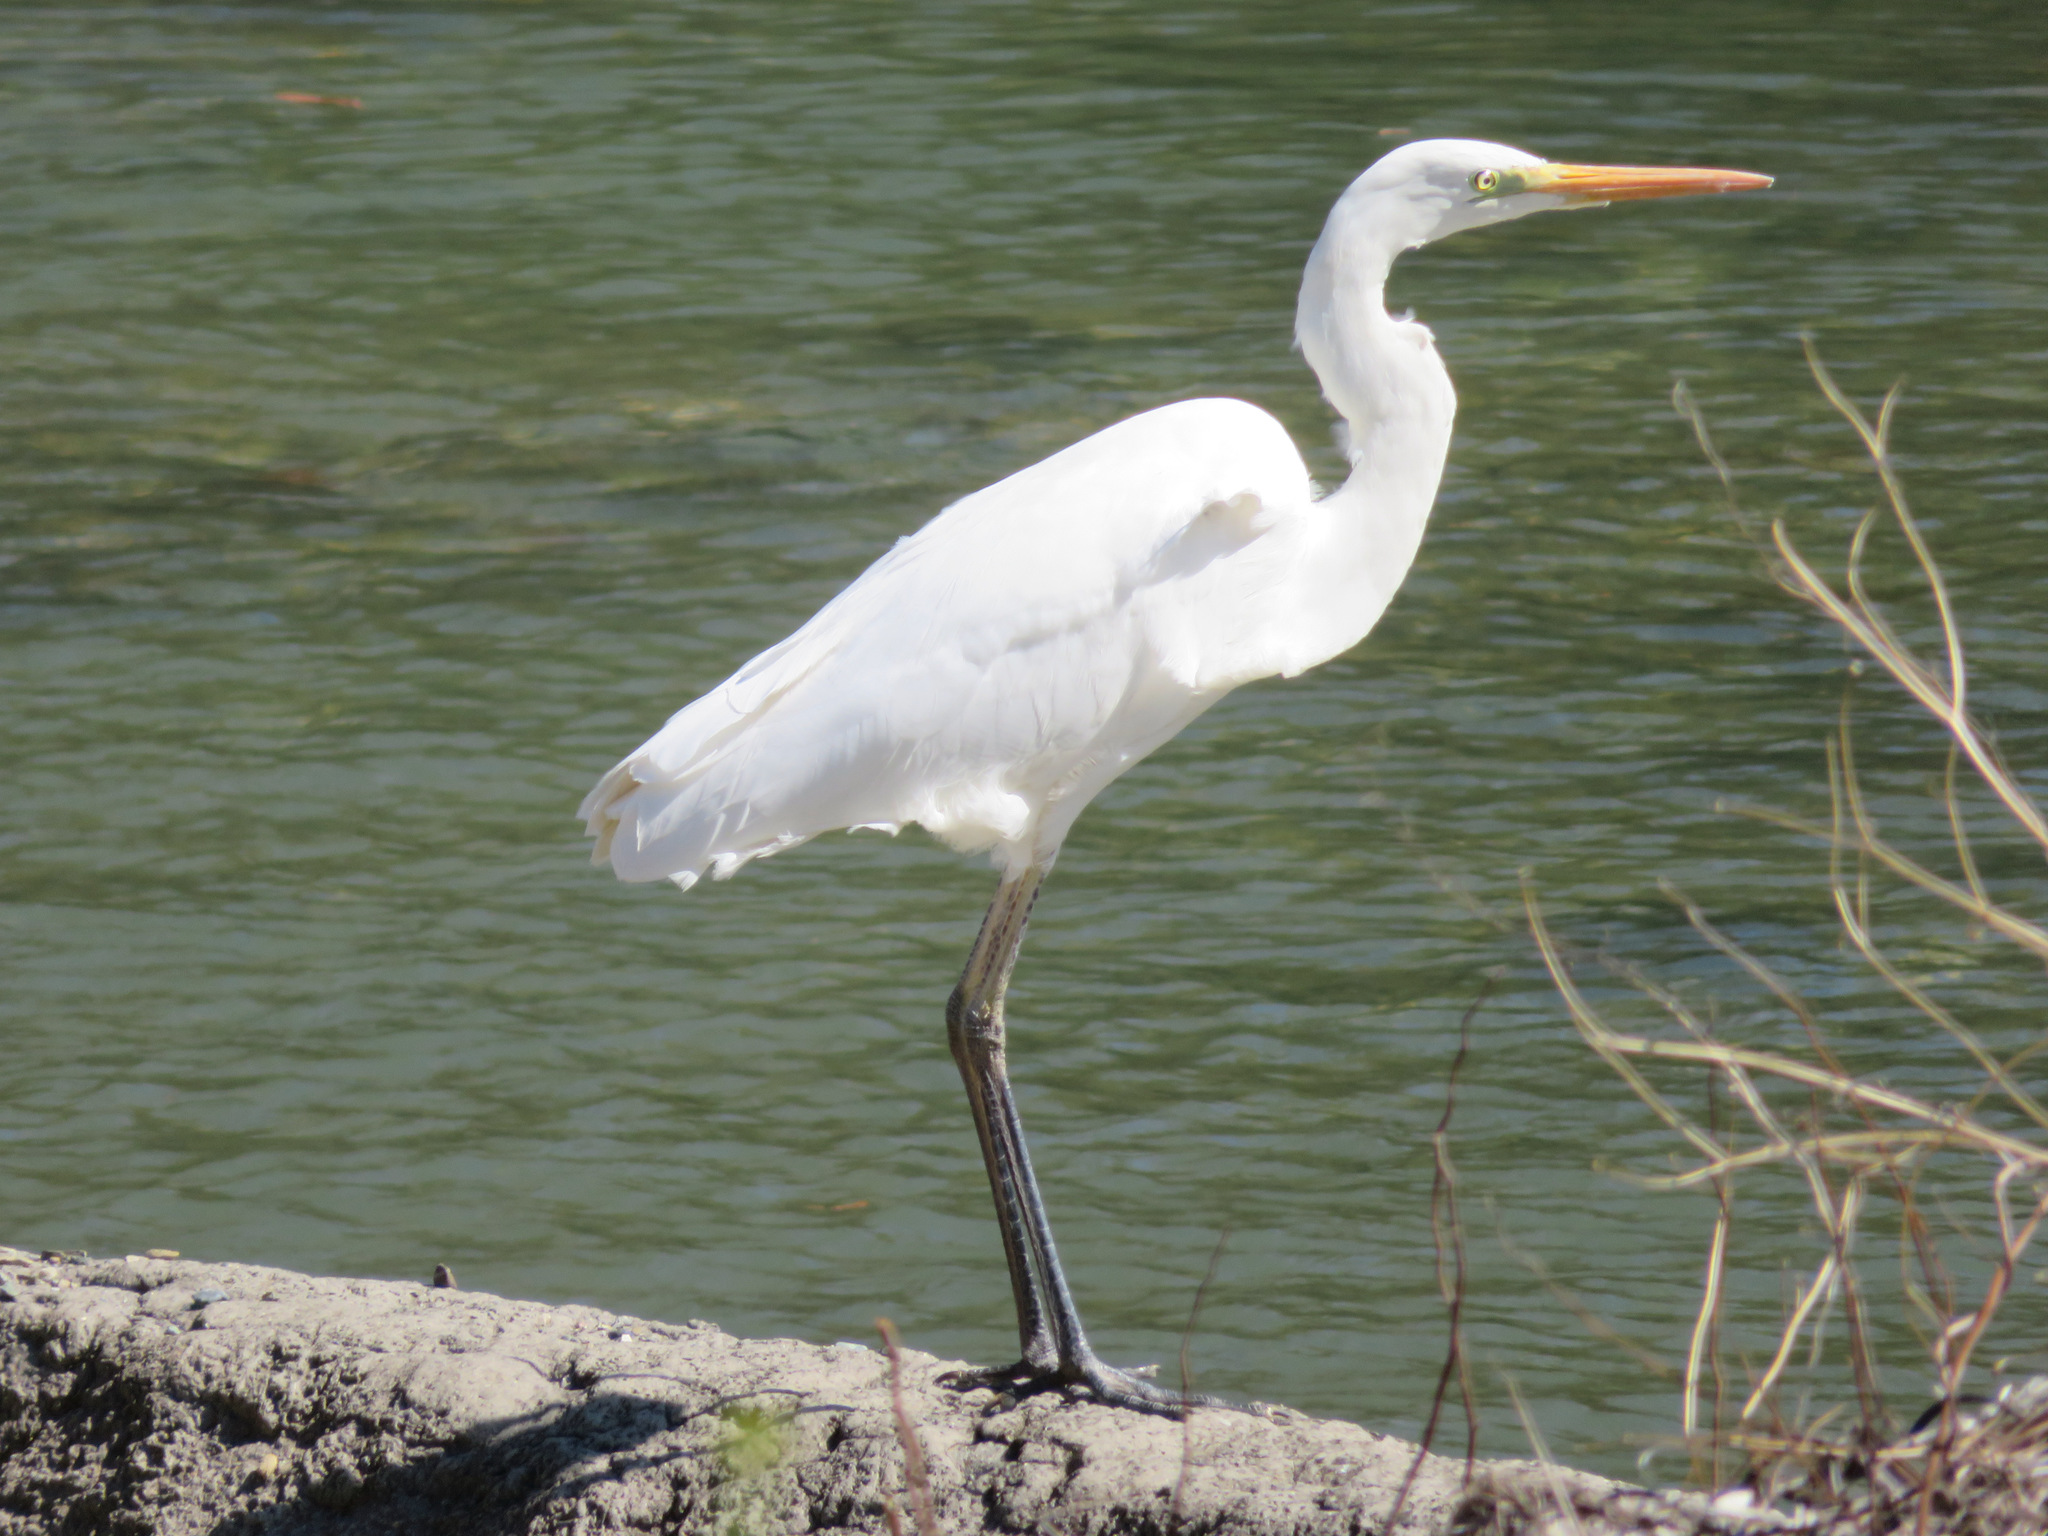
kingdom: Animalia
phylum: Chordata
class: Aves
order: Pelecaniformes
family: Ardeidae
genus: Ardea
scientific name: Ardea alba
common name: Great egret
